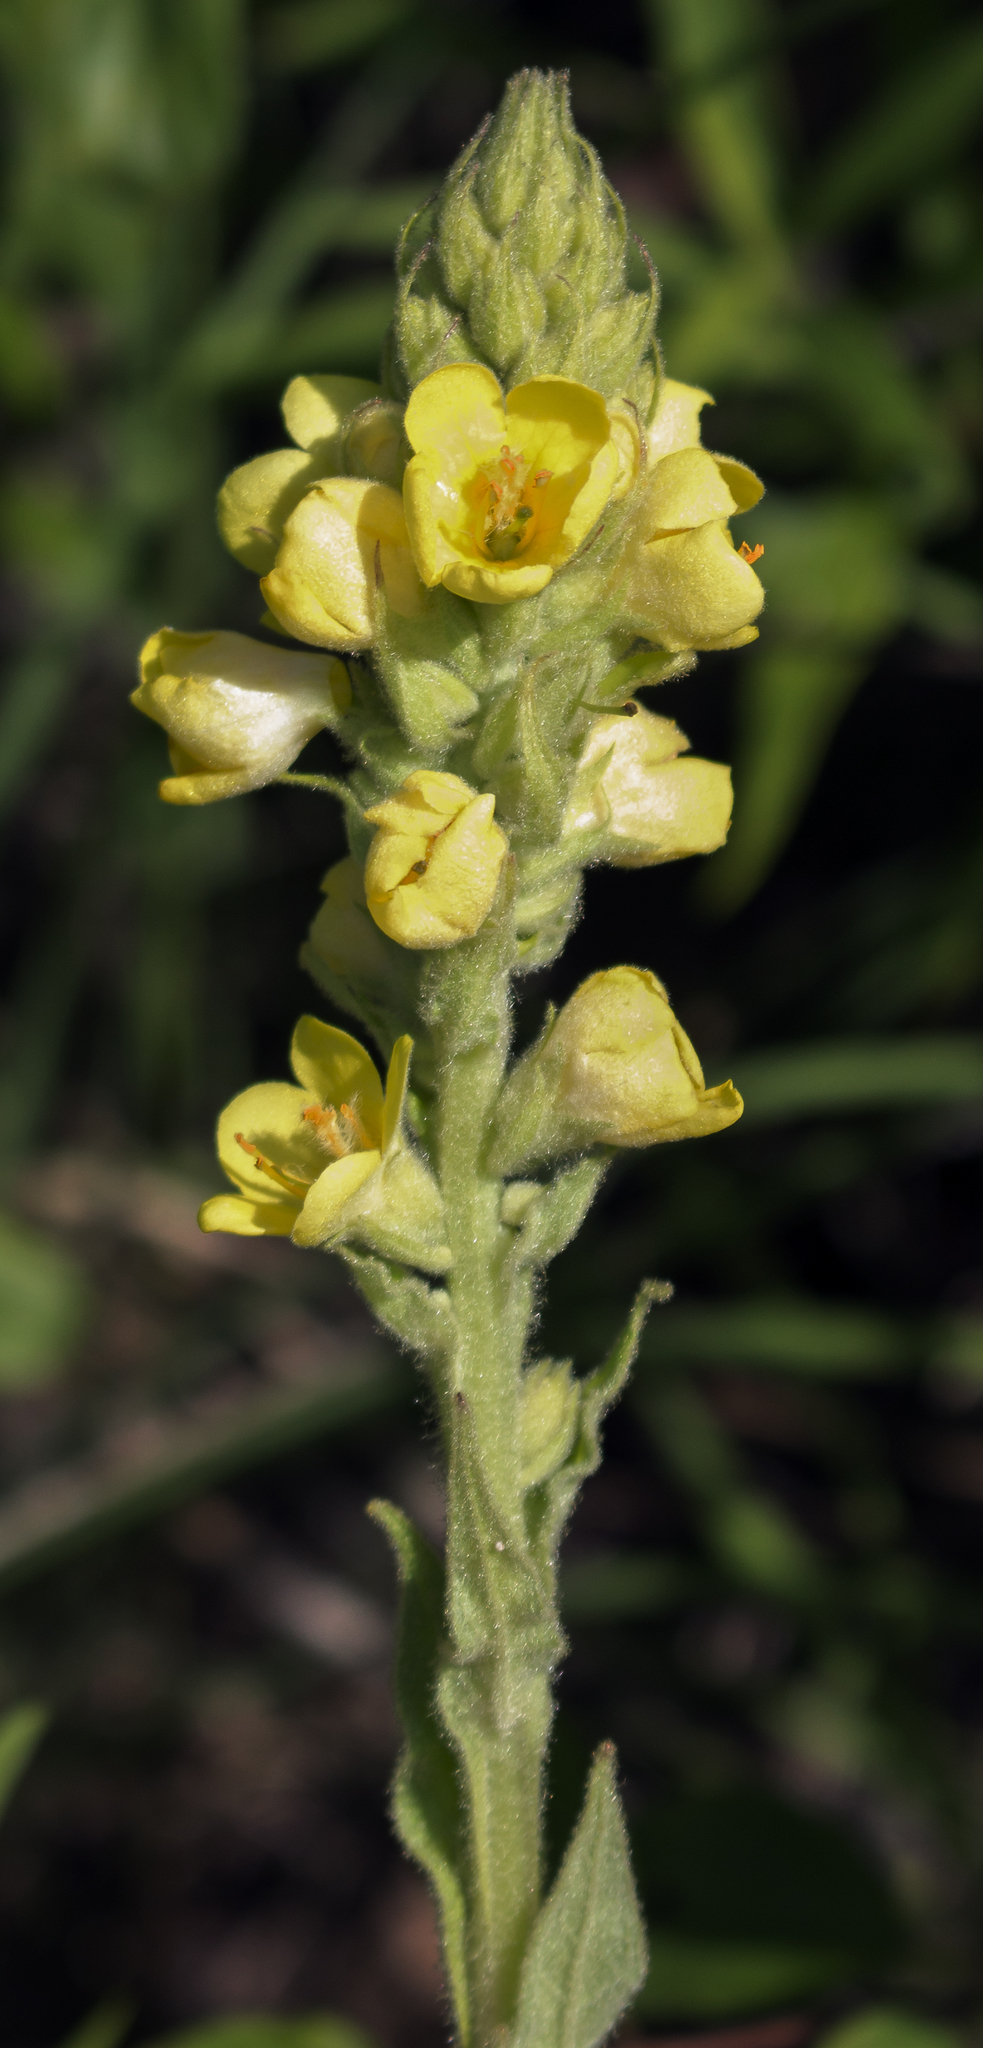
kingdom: Plantae
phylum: Tracheophyta
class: Magnoliopsida
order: Lamiales
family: Scrophulariaceae
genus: Verbascum
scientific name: Verbascum thapsus
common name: Common mullein
